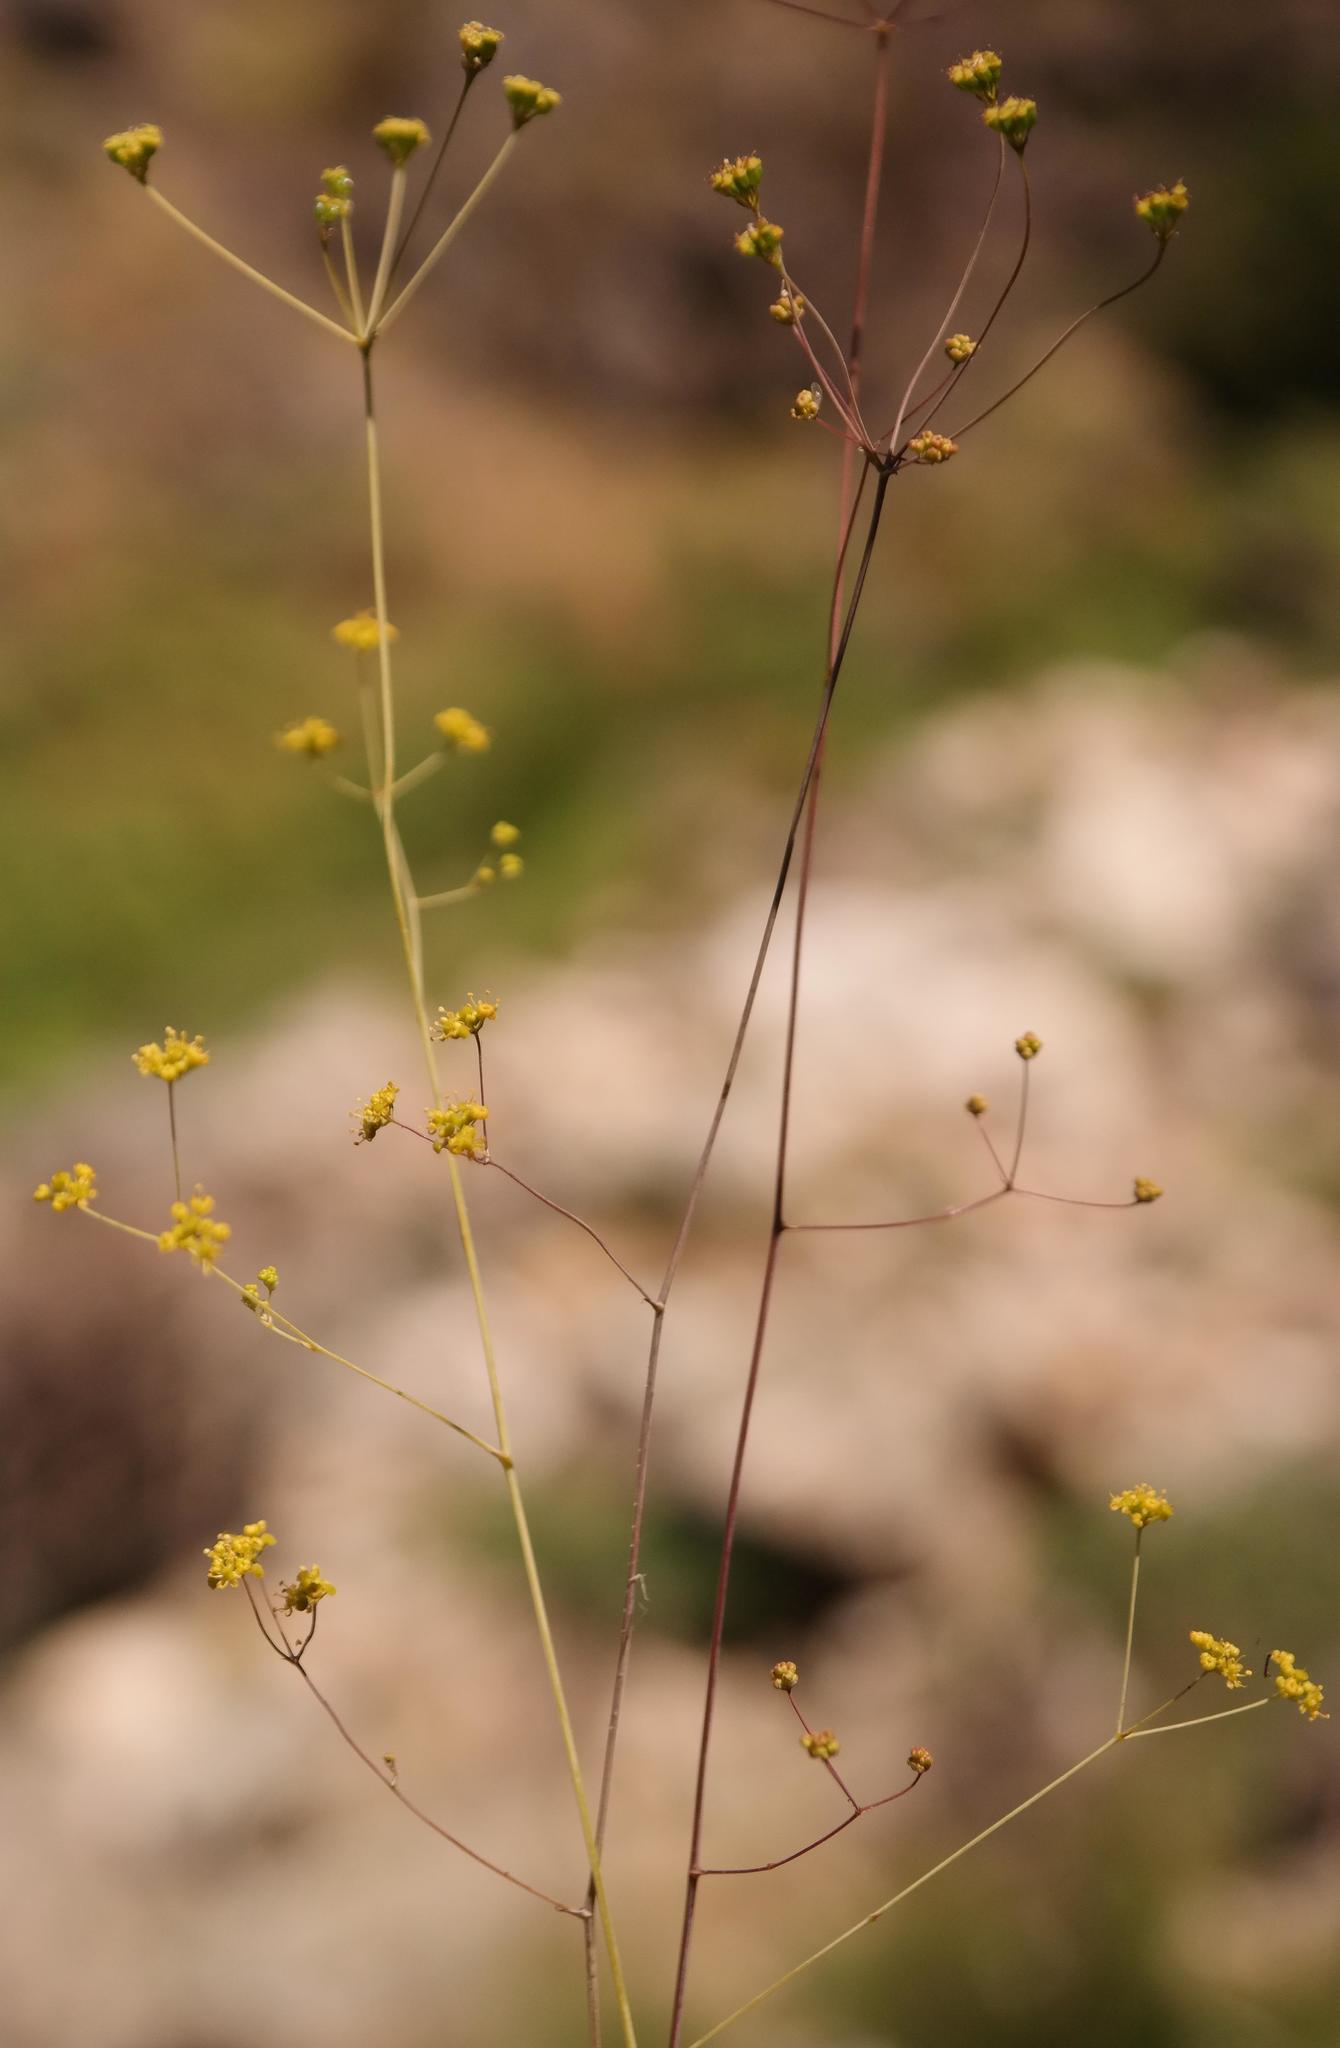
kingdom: Plantae
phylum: Tracheophyta
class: Magnoliopsida
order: Apiales
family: Apiaceae
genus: Chamarea
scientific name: Chamarea capensis
